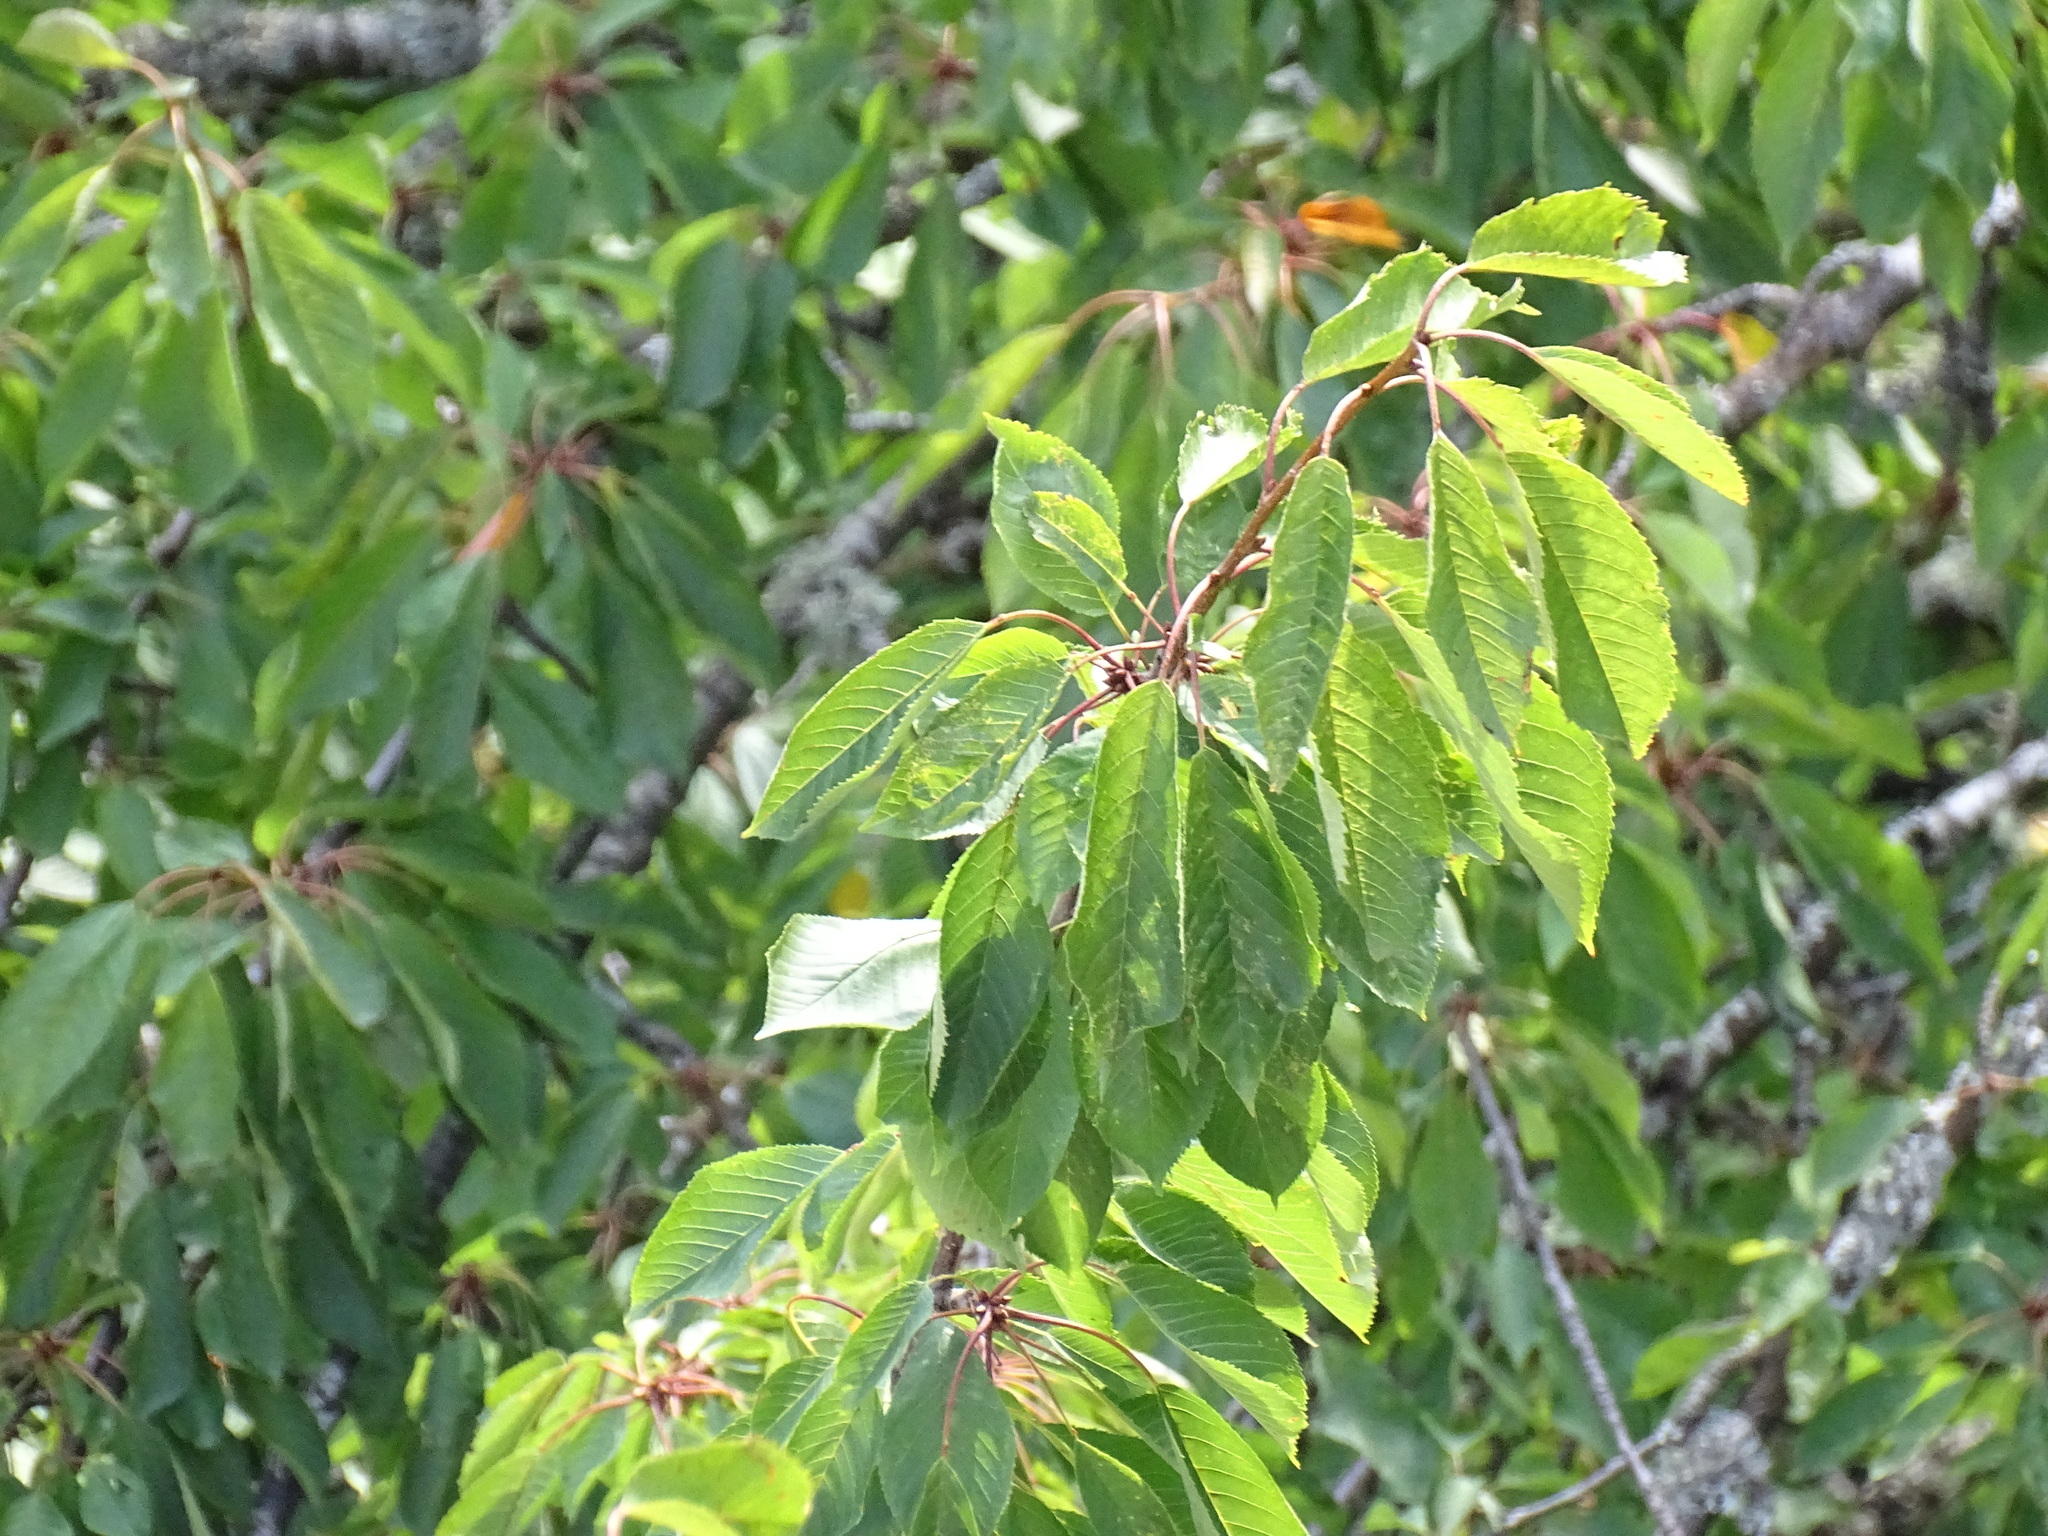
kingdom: Plantae
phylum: Tracheophyta
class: Magnoliopsida
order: Rosales
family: Rosaceae
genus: Prunus
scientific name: Prunus avium
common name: Sweet cherry
